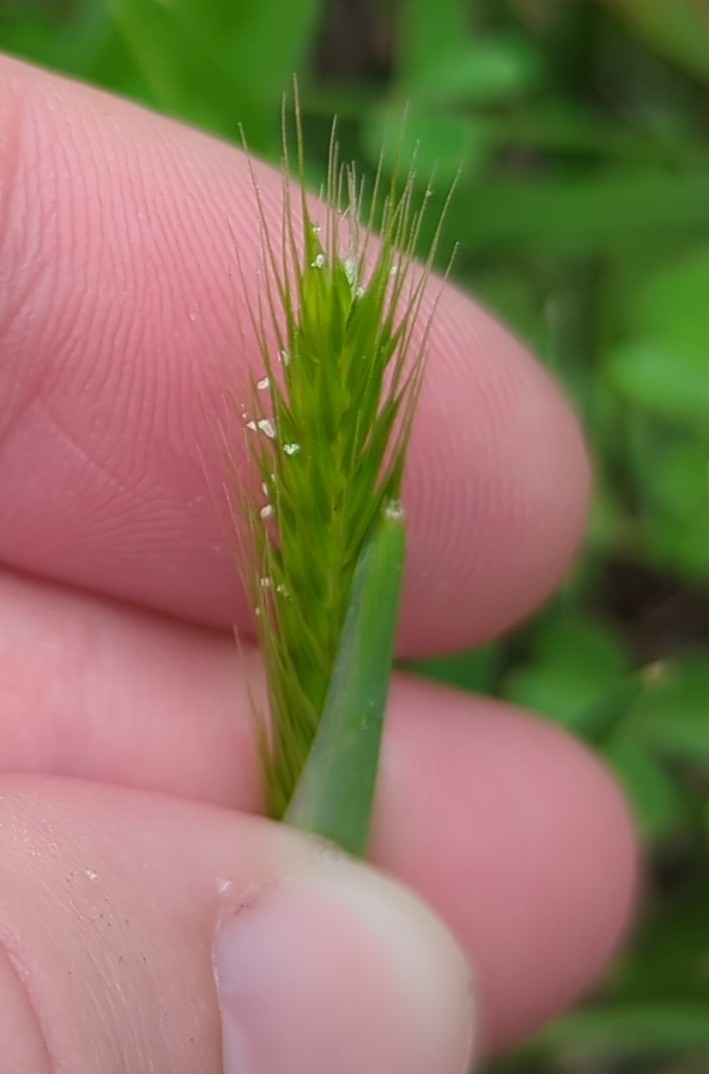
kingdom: Plantae
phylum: Tracheophyta
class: Liliopsida
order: Poales
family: Poaceae
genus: Hordeum
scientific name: Hordeum pusillum
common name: Little barley
